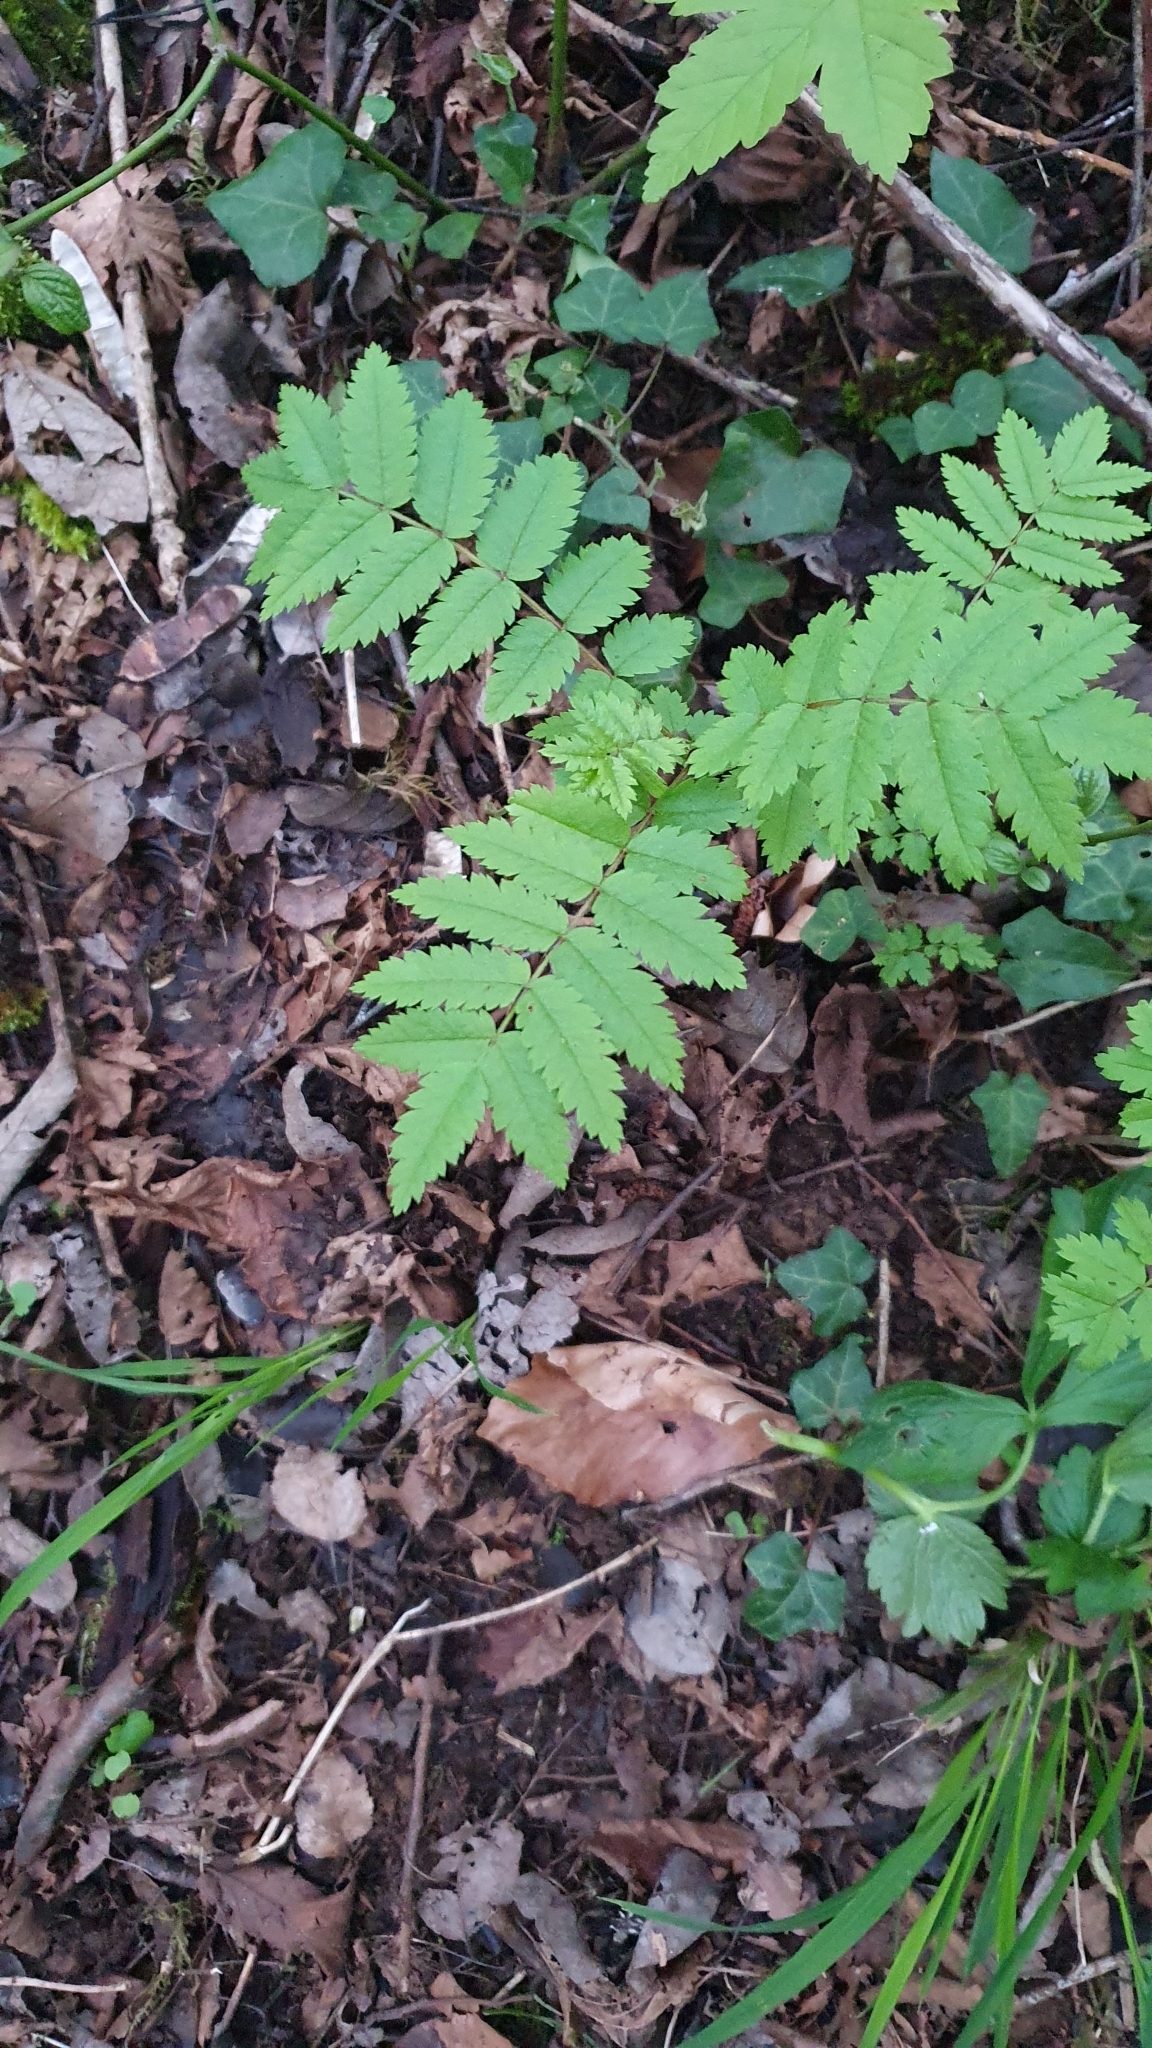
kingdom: Plantae
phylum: Tracheophyta
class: Magnoliopsida
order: Rosales
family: Rosaceae
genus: Sorbus
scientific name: Sorbus aucuparia
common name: Rowan
